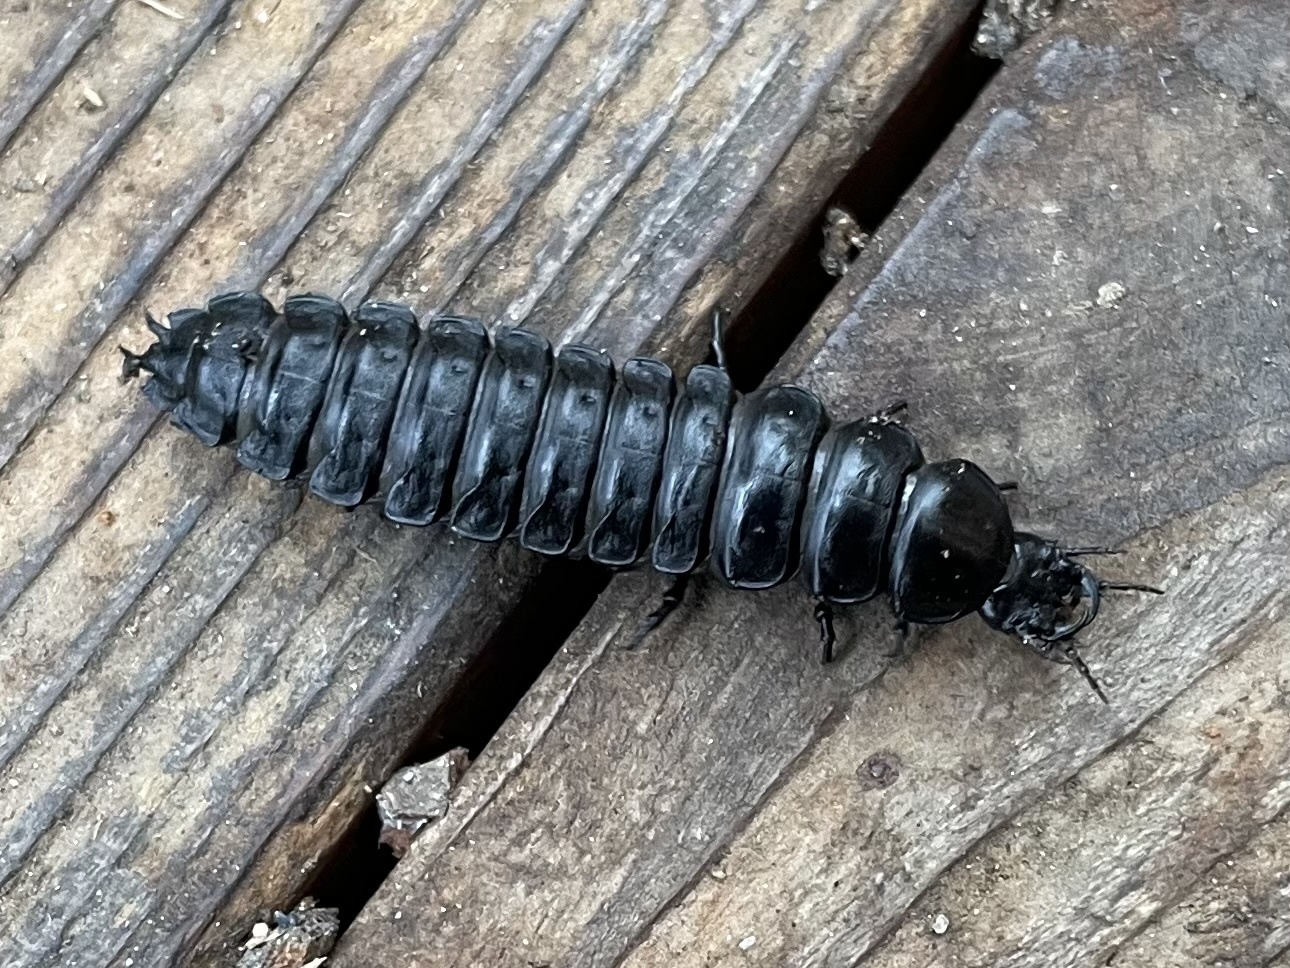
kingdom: Animalia
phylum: Arthropoda
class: Insecta
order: Coleoptera
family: Carabidae
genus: Carabus
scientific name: Carabus
